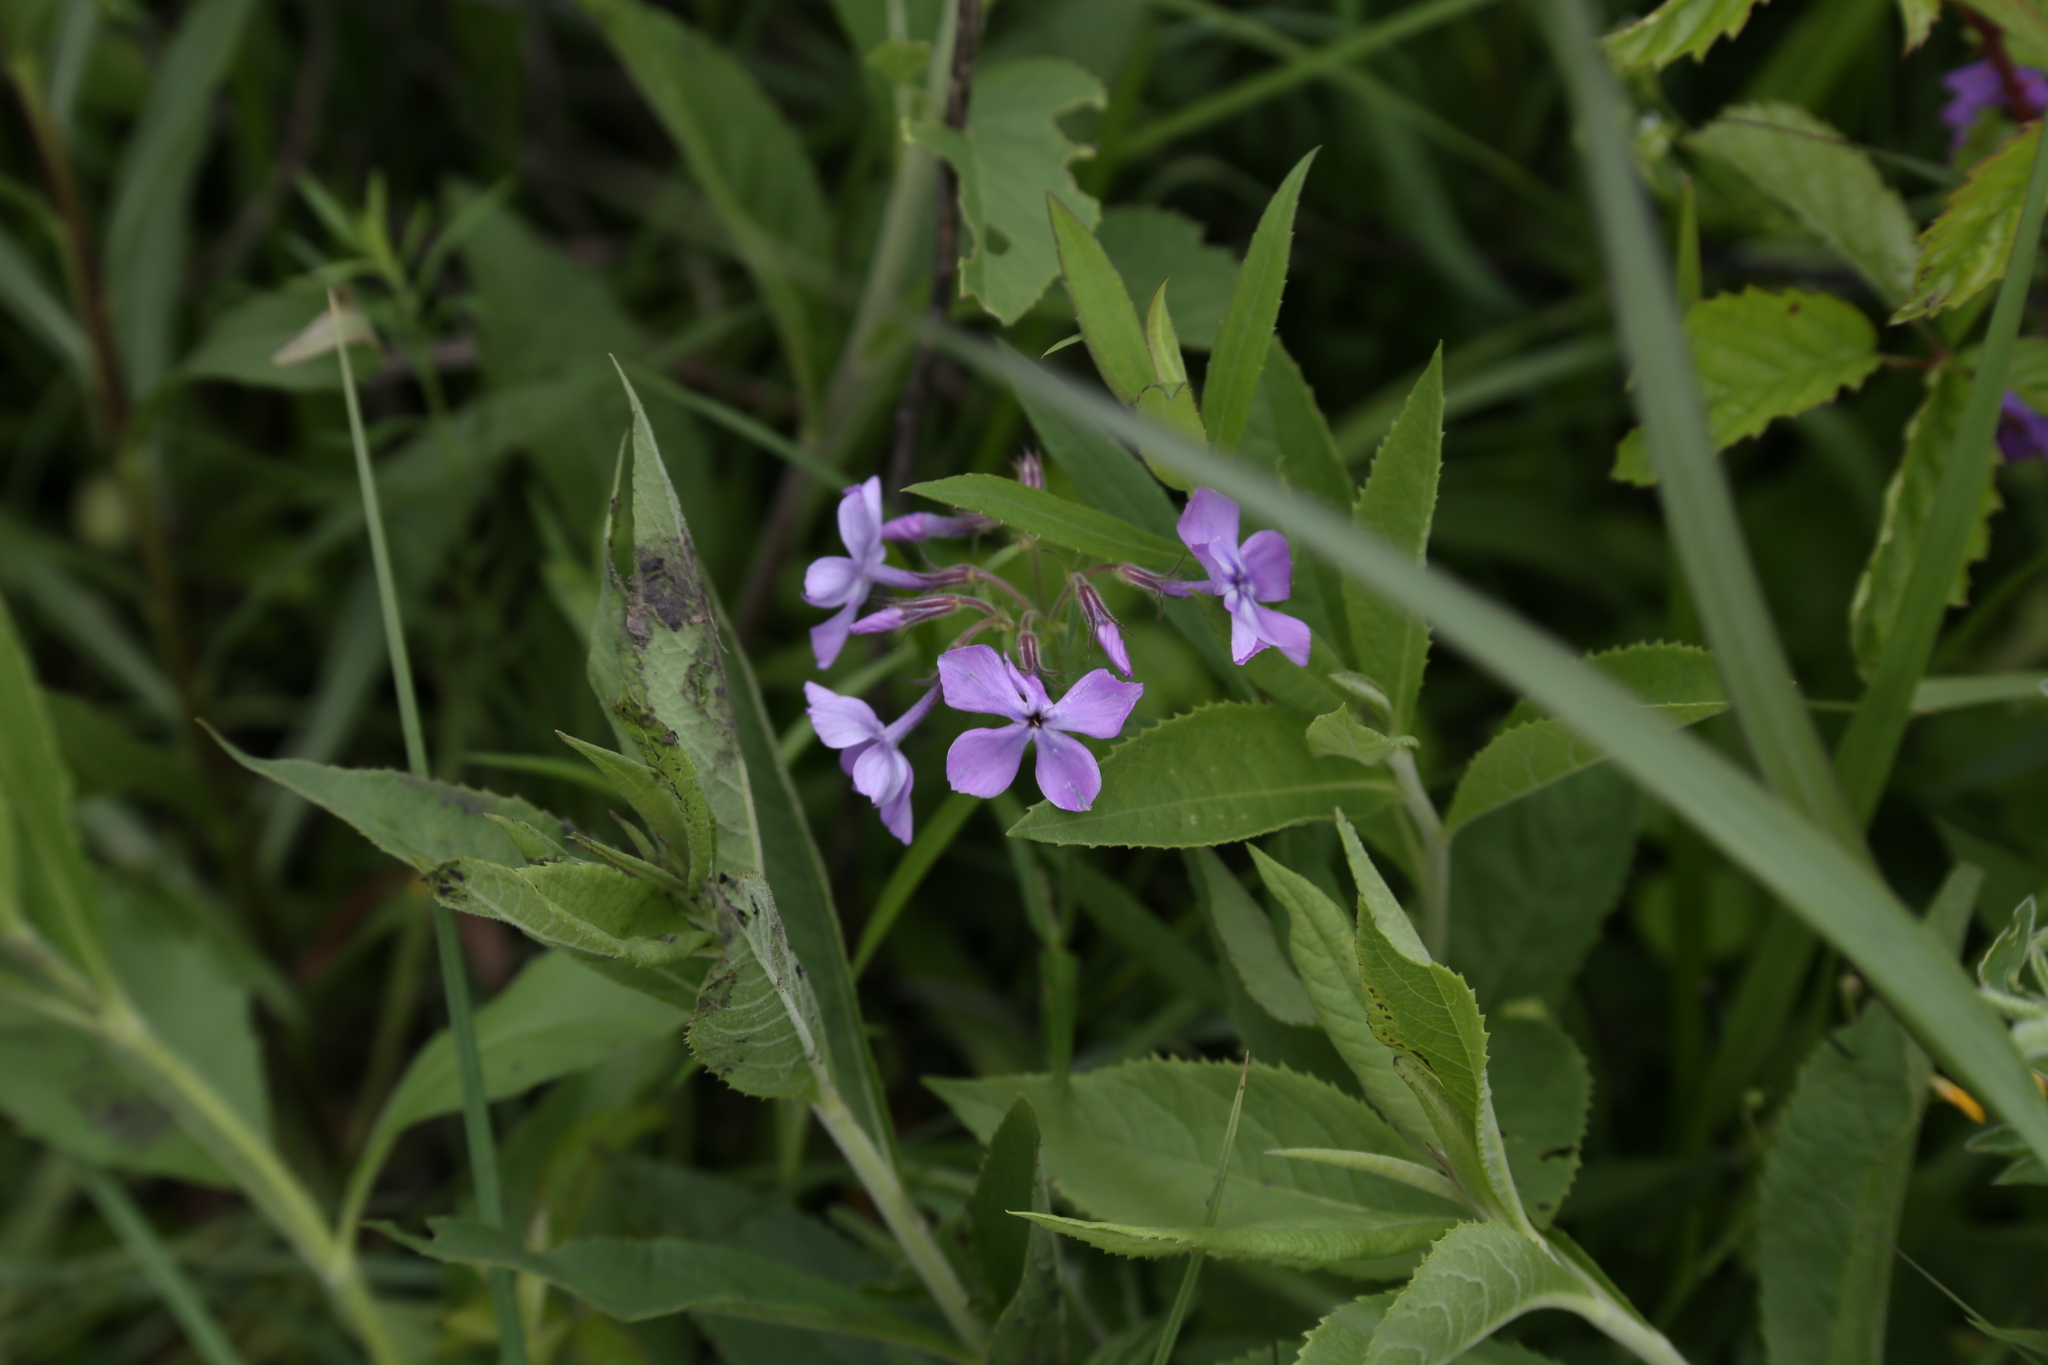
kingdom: Plantae
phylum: Tracheophyta
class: Magnoliopsida
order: Ericales
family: Polemoniaceae
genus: Phlox
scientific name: Phlox pilosa
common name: Prairie phlox
